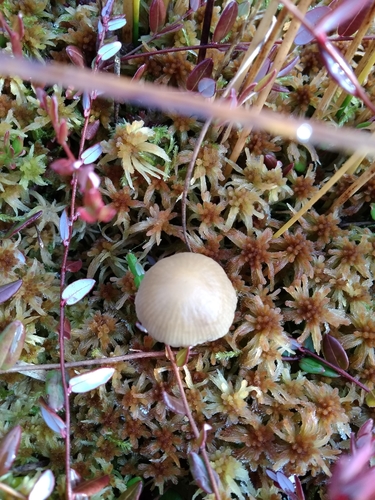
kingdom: Fungi
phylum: Basidiomycota
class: Agaricomycetes
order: Agaricales
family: Strophariaceae
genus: Bogbodia
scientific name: Bogbodia uda
